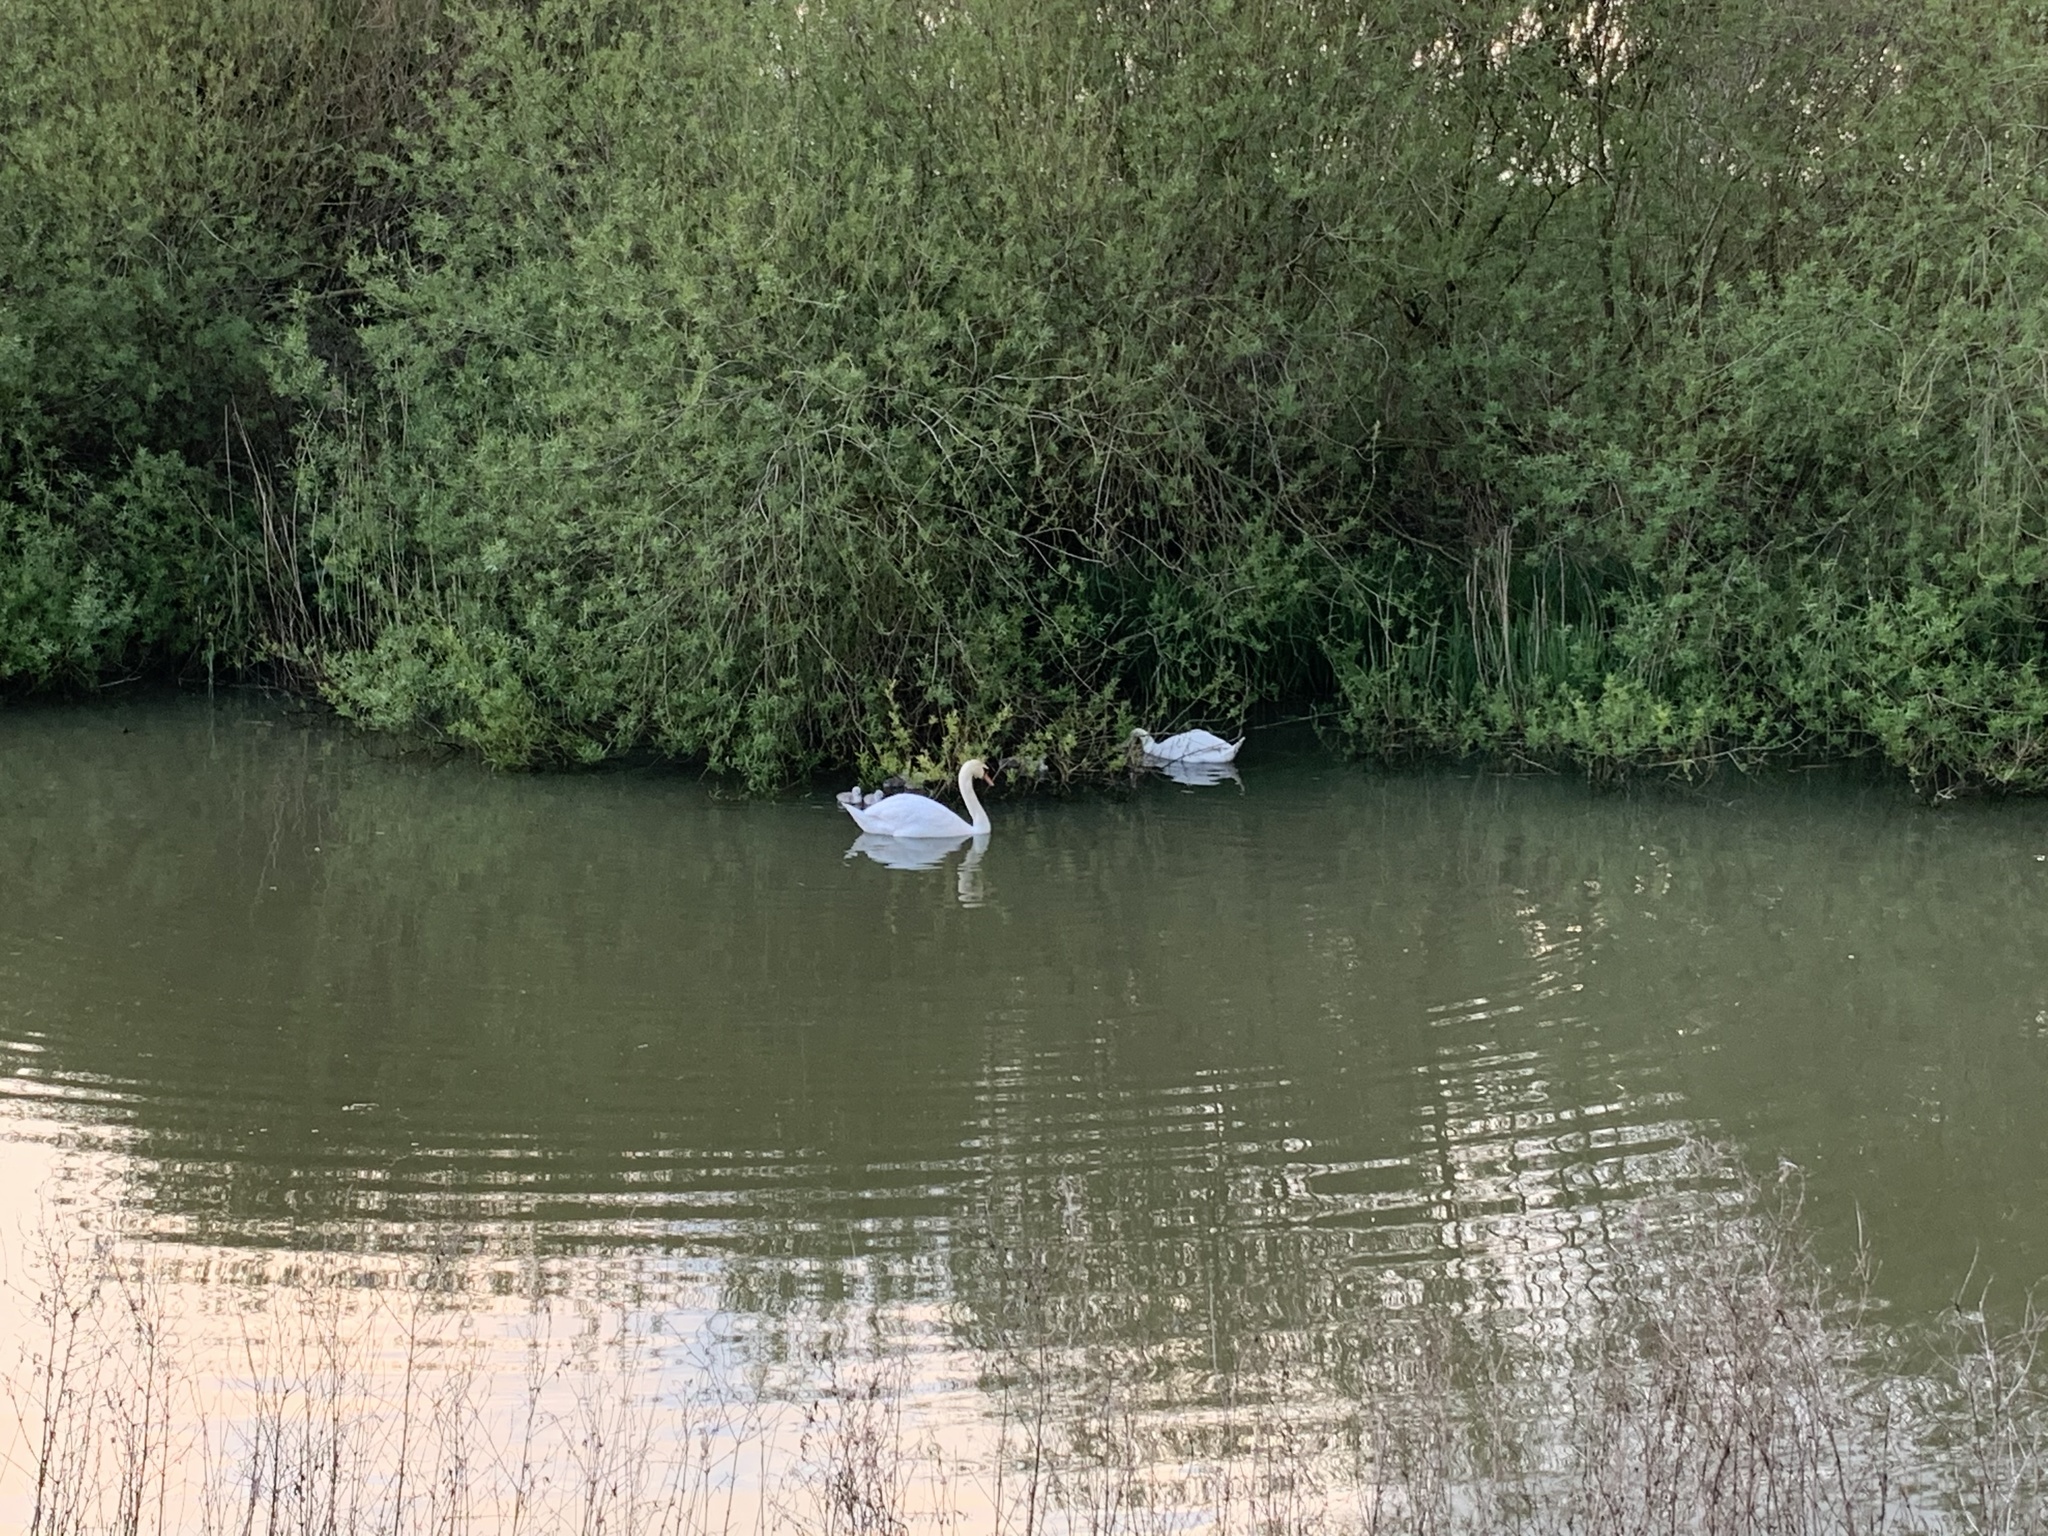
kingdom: Animalia
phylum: Chordata
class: Aves
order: Anseriformes
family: Anatidae
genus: Cygnus
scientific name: Cygnus olor
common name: Mute swan
